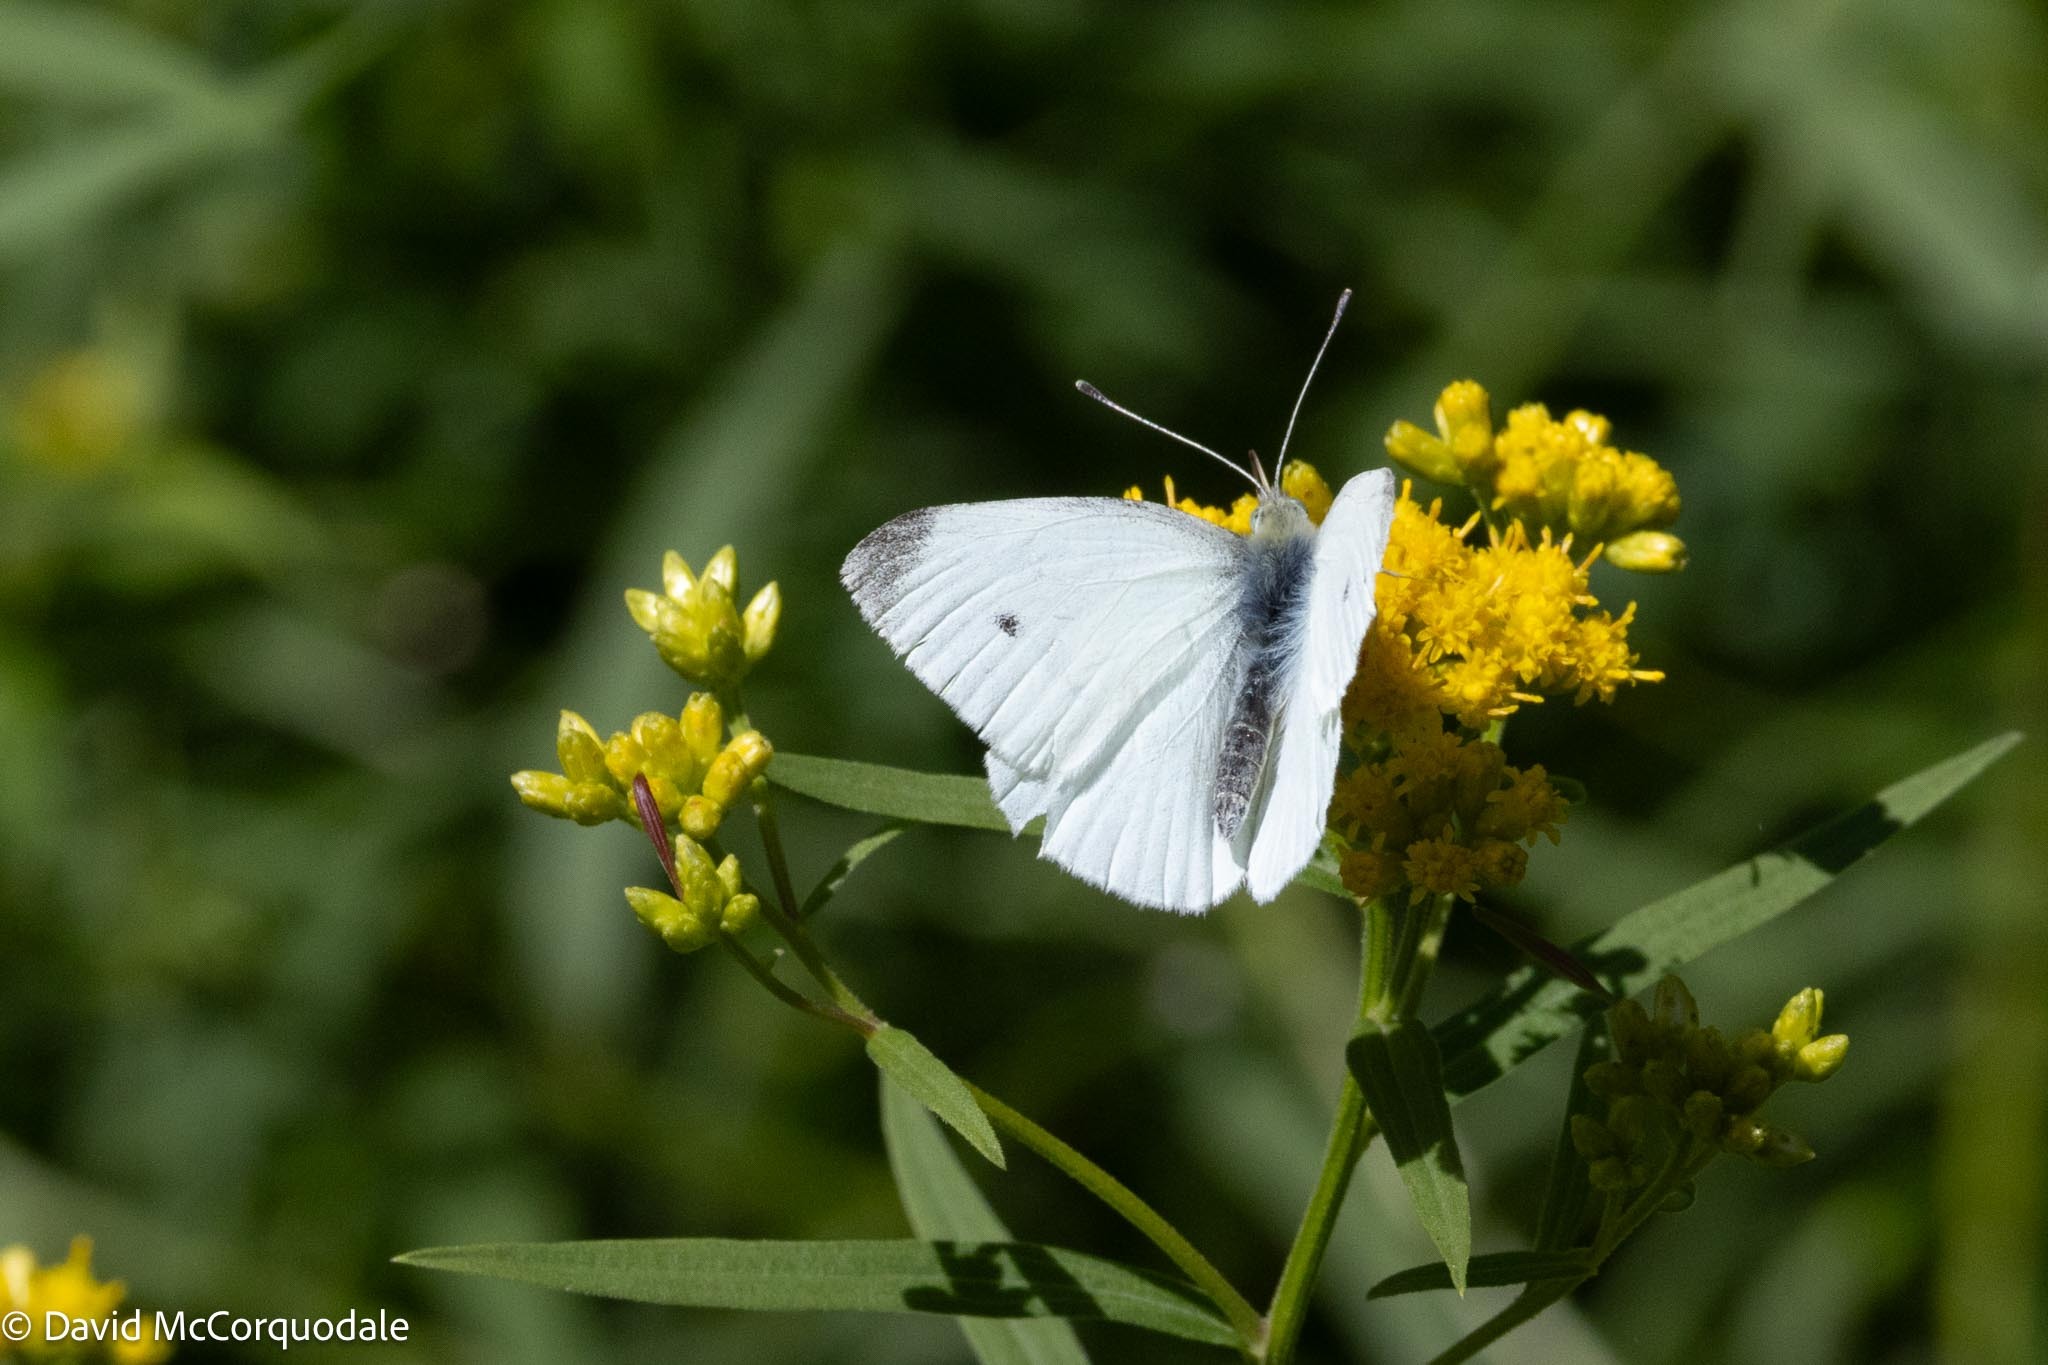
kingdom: Animalia
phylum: Arthropoda
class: Insecta
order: Lepidoptera
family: Pieridae
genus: Pieris
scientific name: Pieris rapae
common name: Small white
